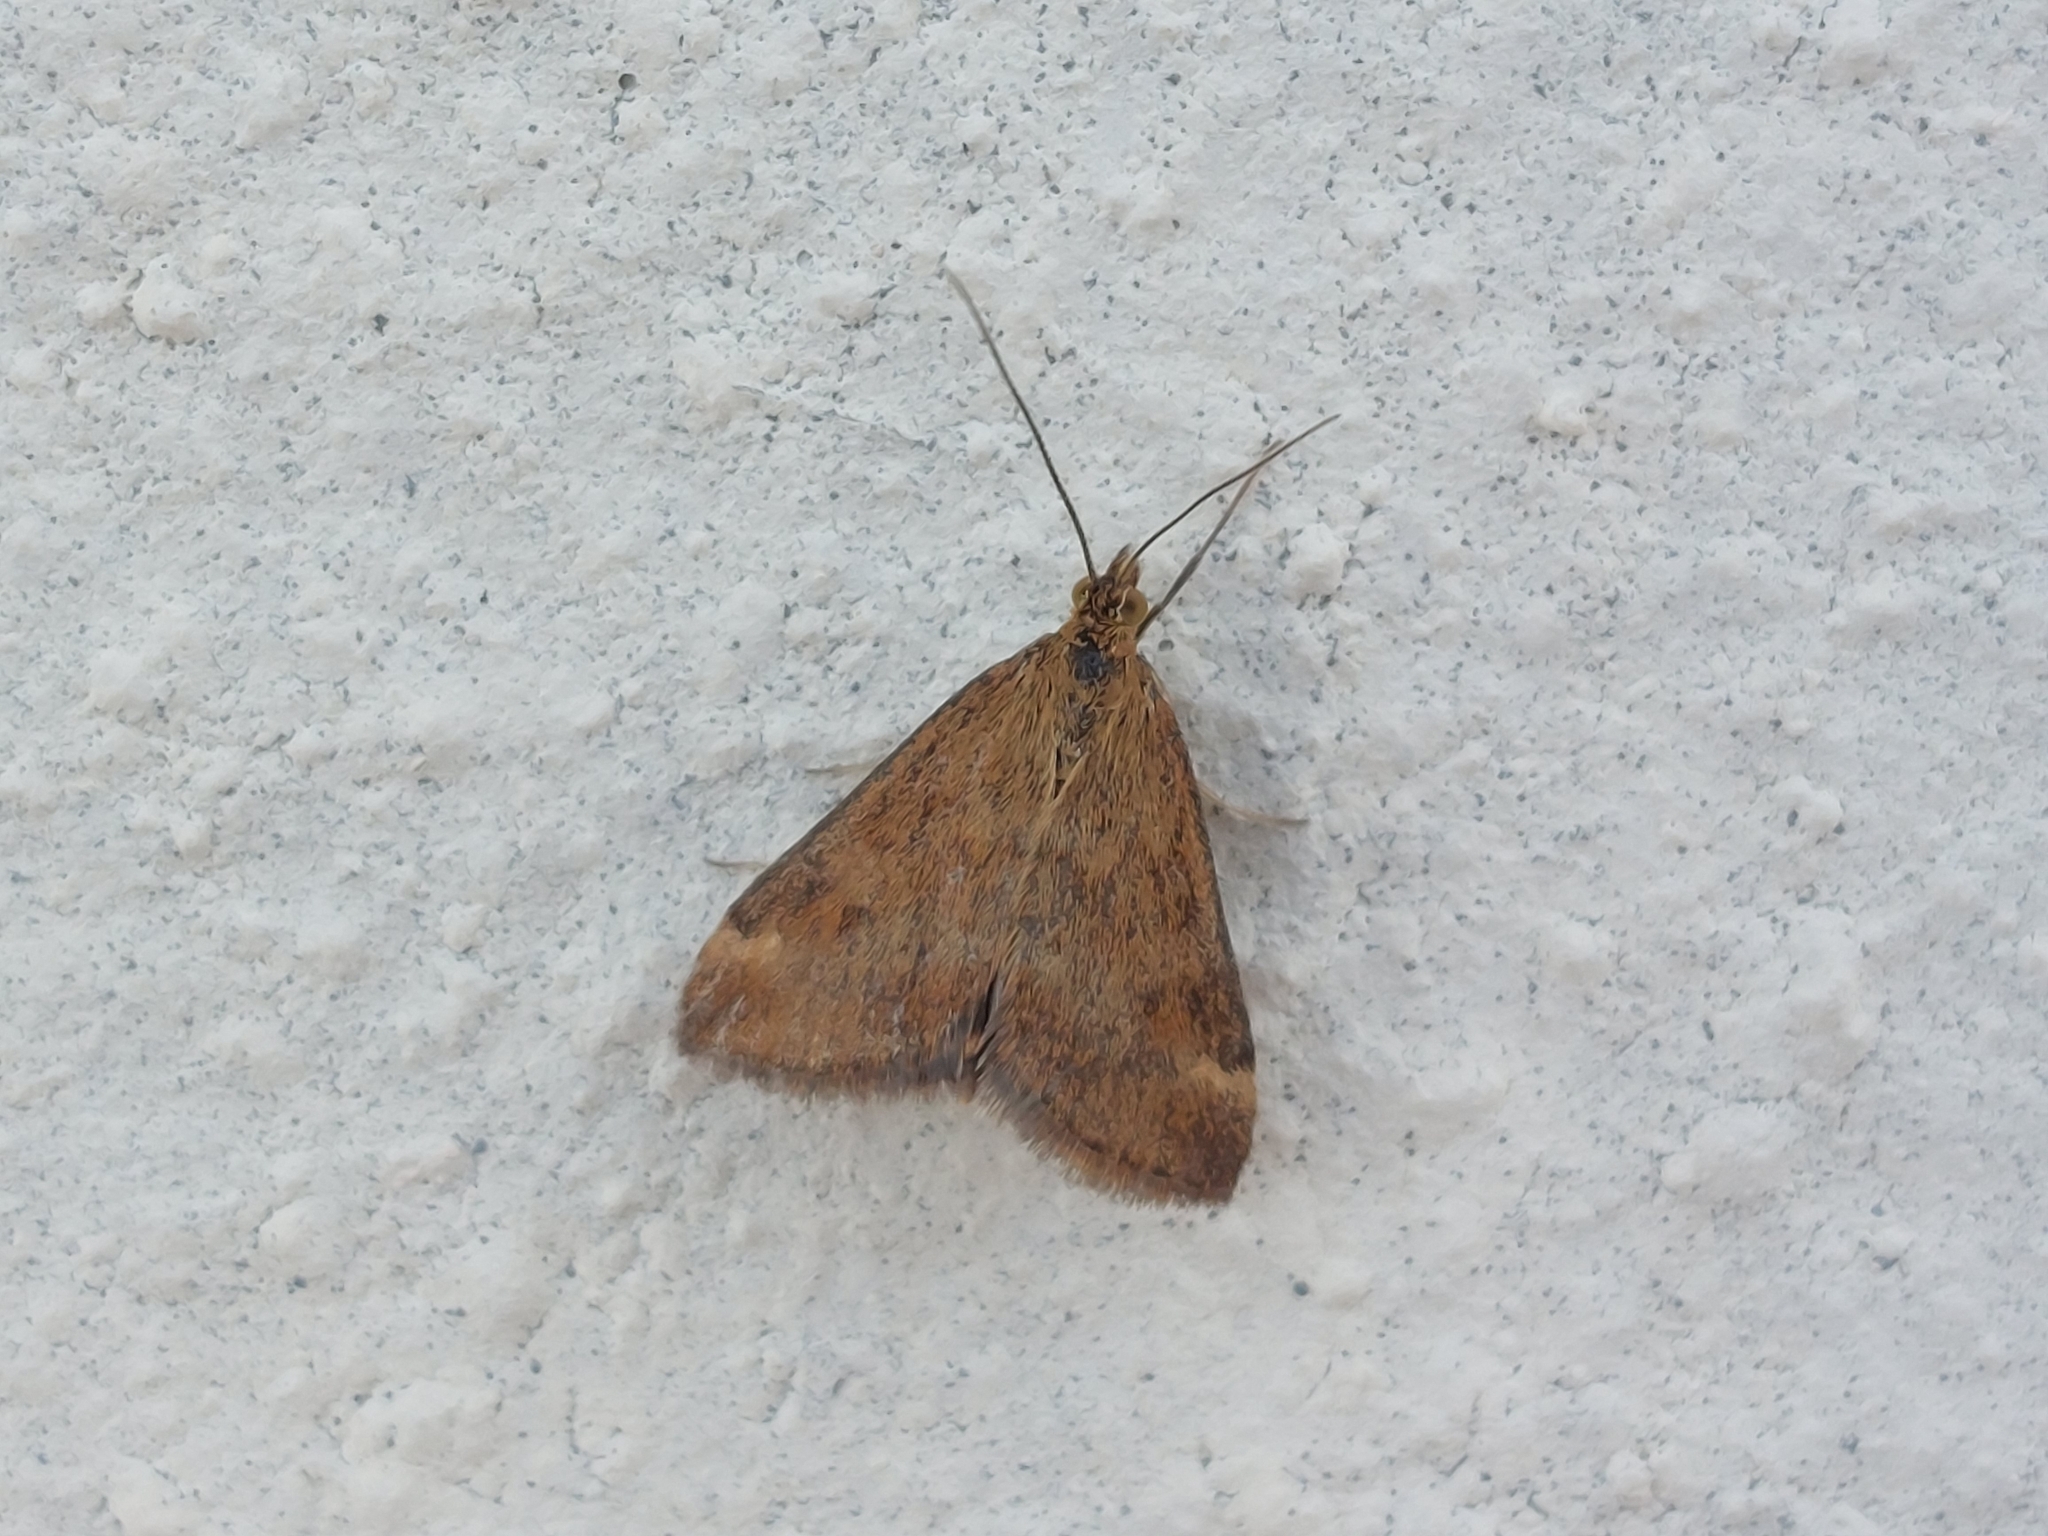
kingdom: Animalia
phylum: Arthropoda
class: Insecta
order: Lepidoptera
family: Crambidae
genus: Pyrausta
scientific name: Pyrausta despicata
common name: Straw-barred pearl
